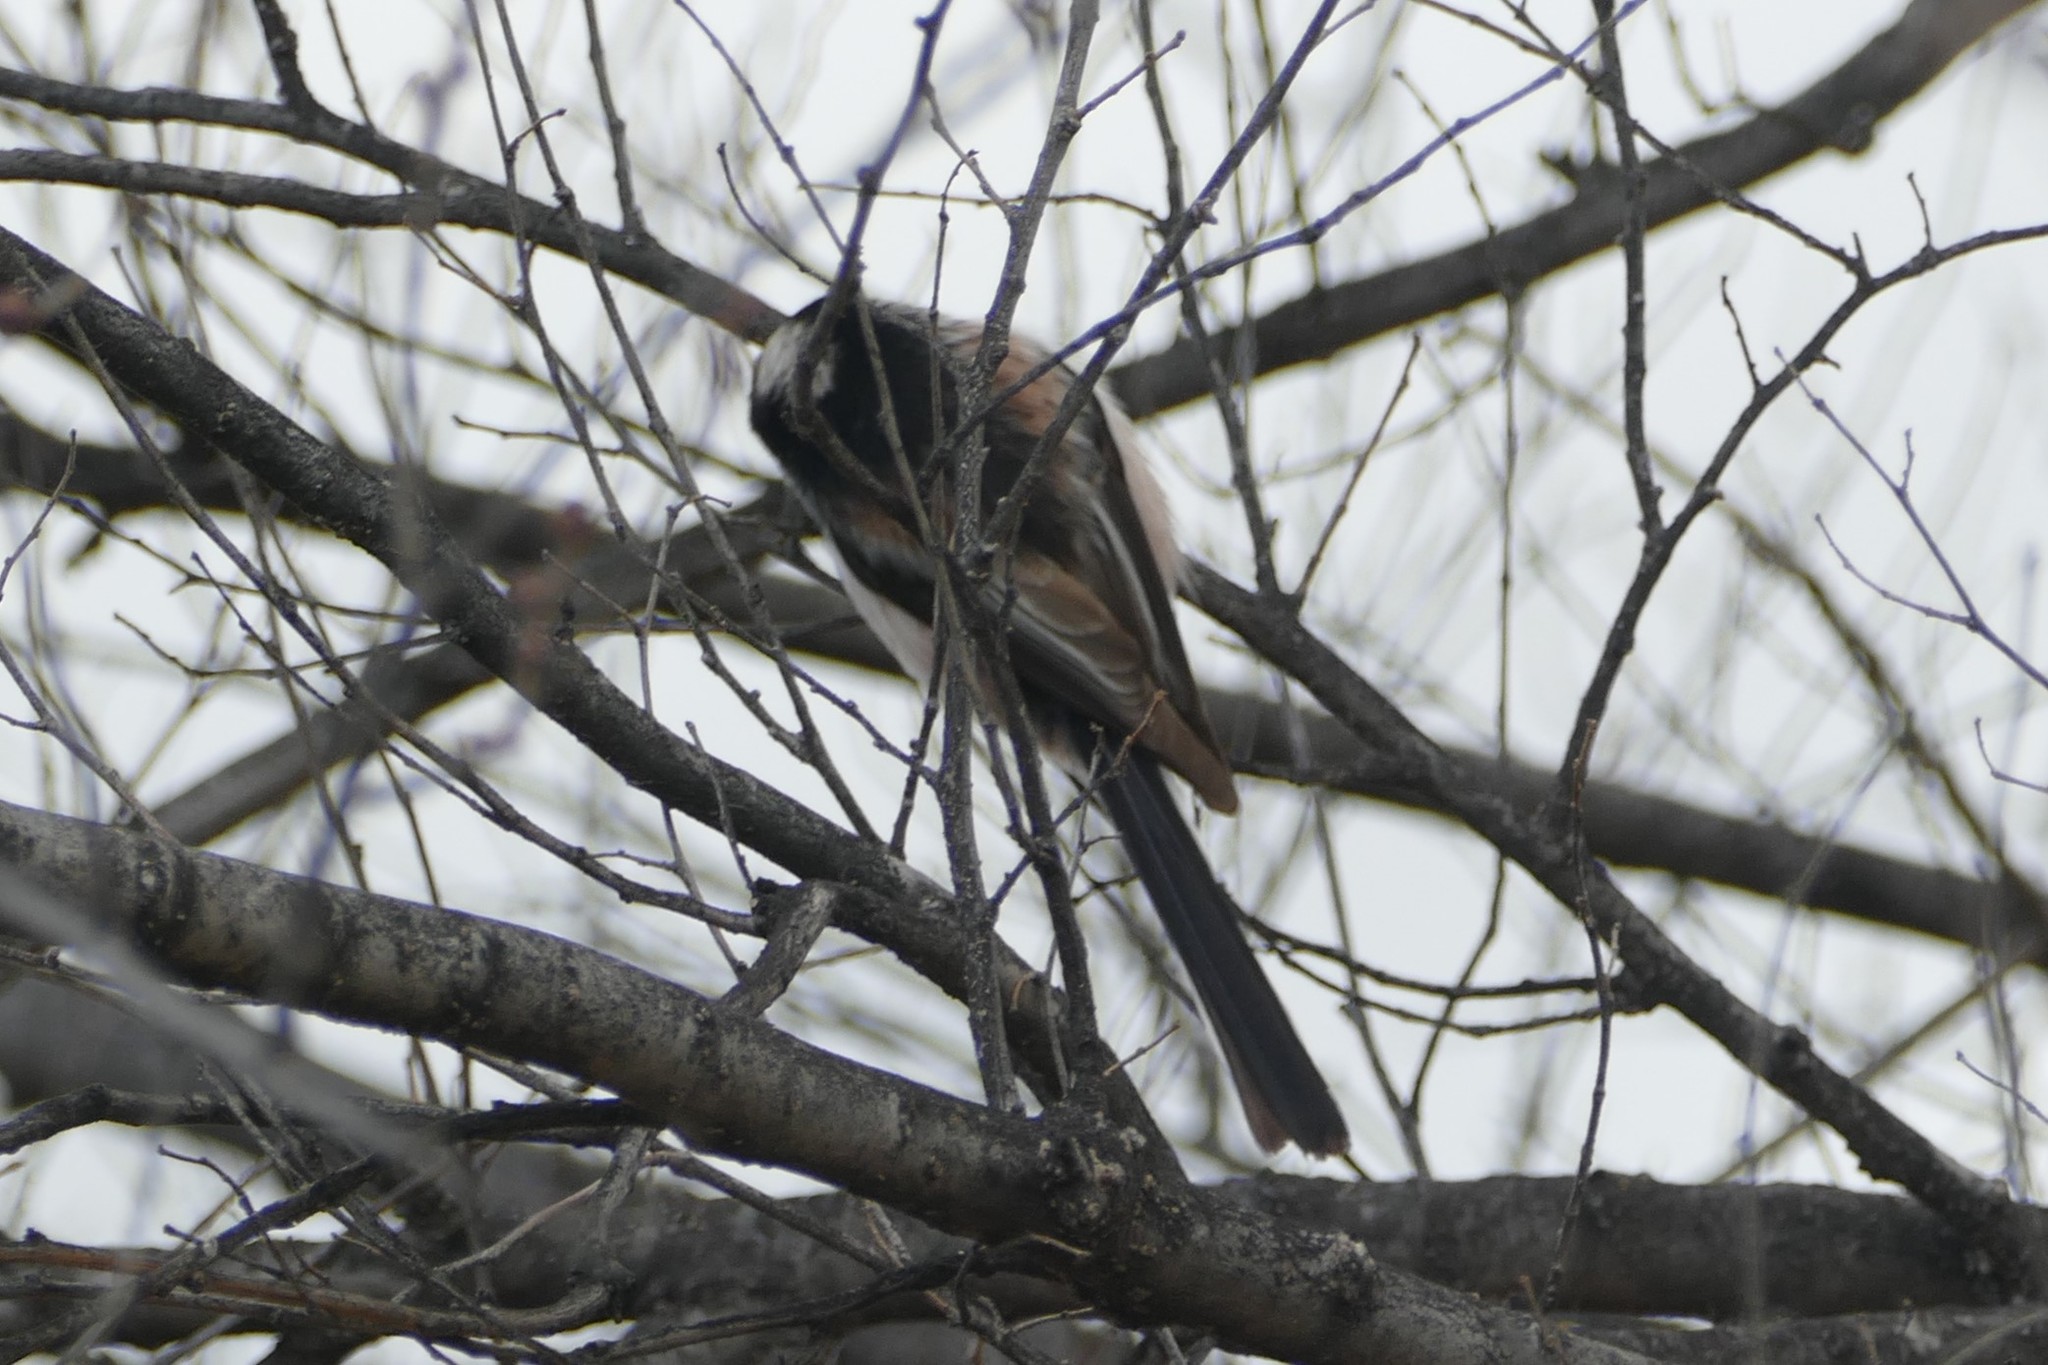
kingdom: Animalia
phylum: Chordata
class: Aves
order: Passeriformes
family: Aegithalidae
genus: Aegithalos
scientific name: Aegithalos caudatus
